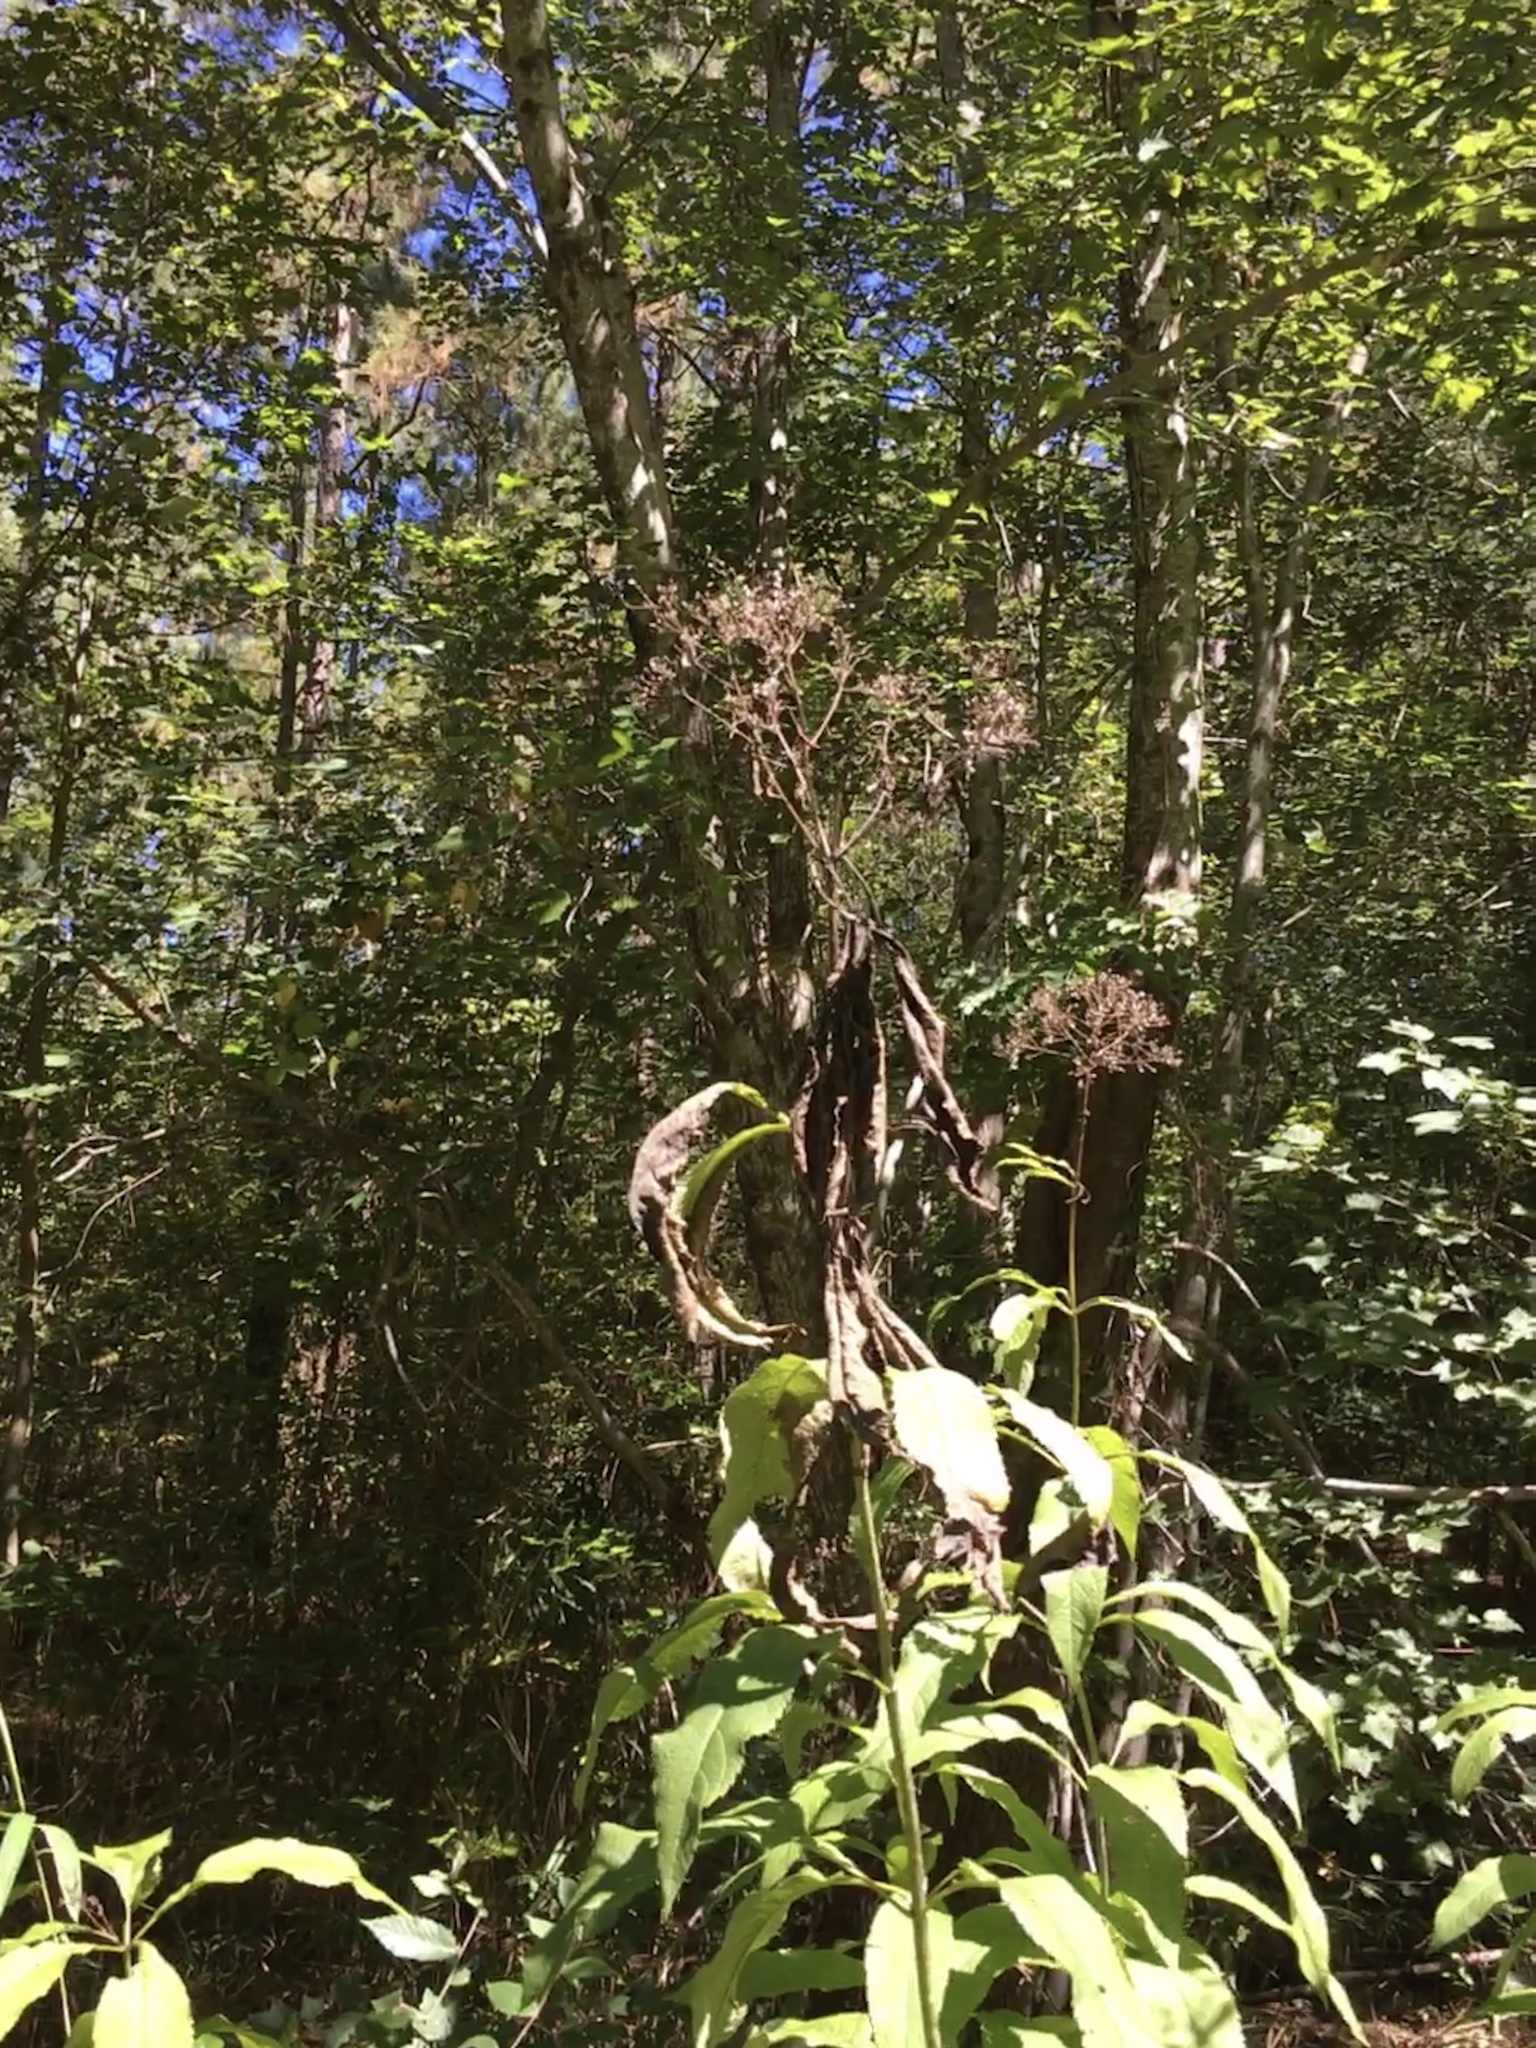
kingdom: Plantae
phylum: Tracheophyta
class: Magnoliopsida
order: Asterales
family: Asteraceae
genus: Eutrochium
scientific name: Eutrochium fistulosum
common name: Trumpetweed
